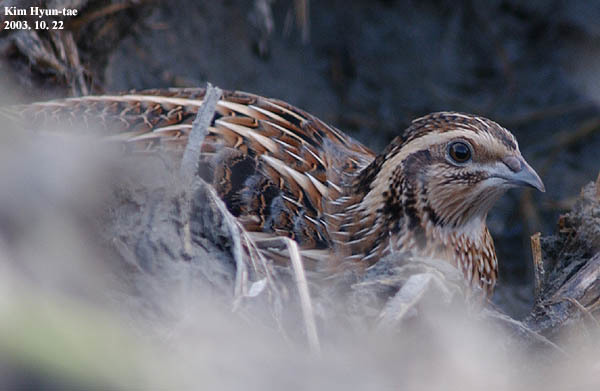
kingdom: Animalia
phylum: Chordata
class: Aves
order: Galliformes
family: Phasianidae
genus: Coturnix
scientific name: Coturnix japonica
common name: Japanese quail
